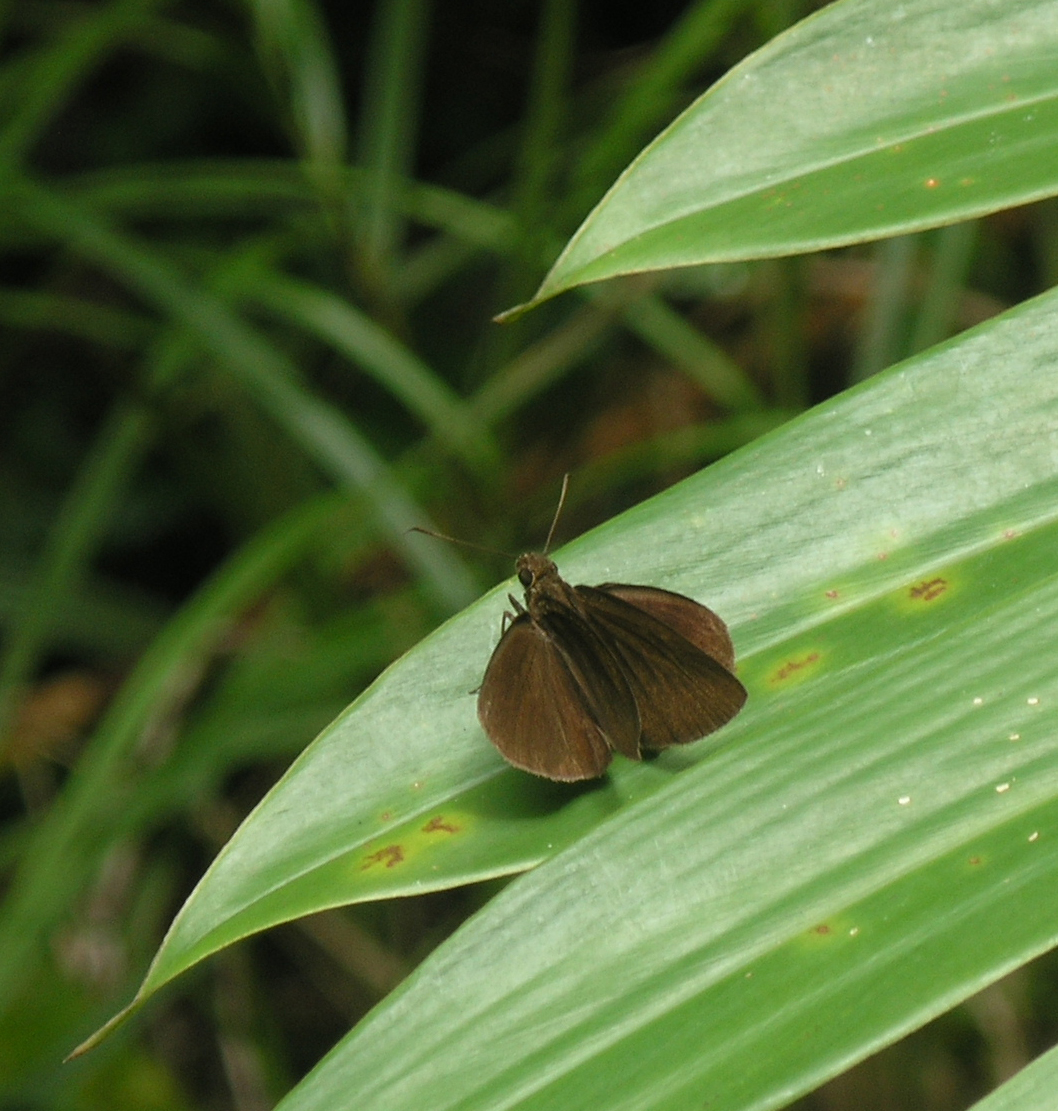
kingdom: Animalia
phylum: Arthropoda
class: Insecta
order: Lepidoptera
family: Hesperiidae
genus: Ancistroides
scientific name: Ancistroides nigrita
